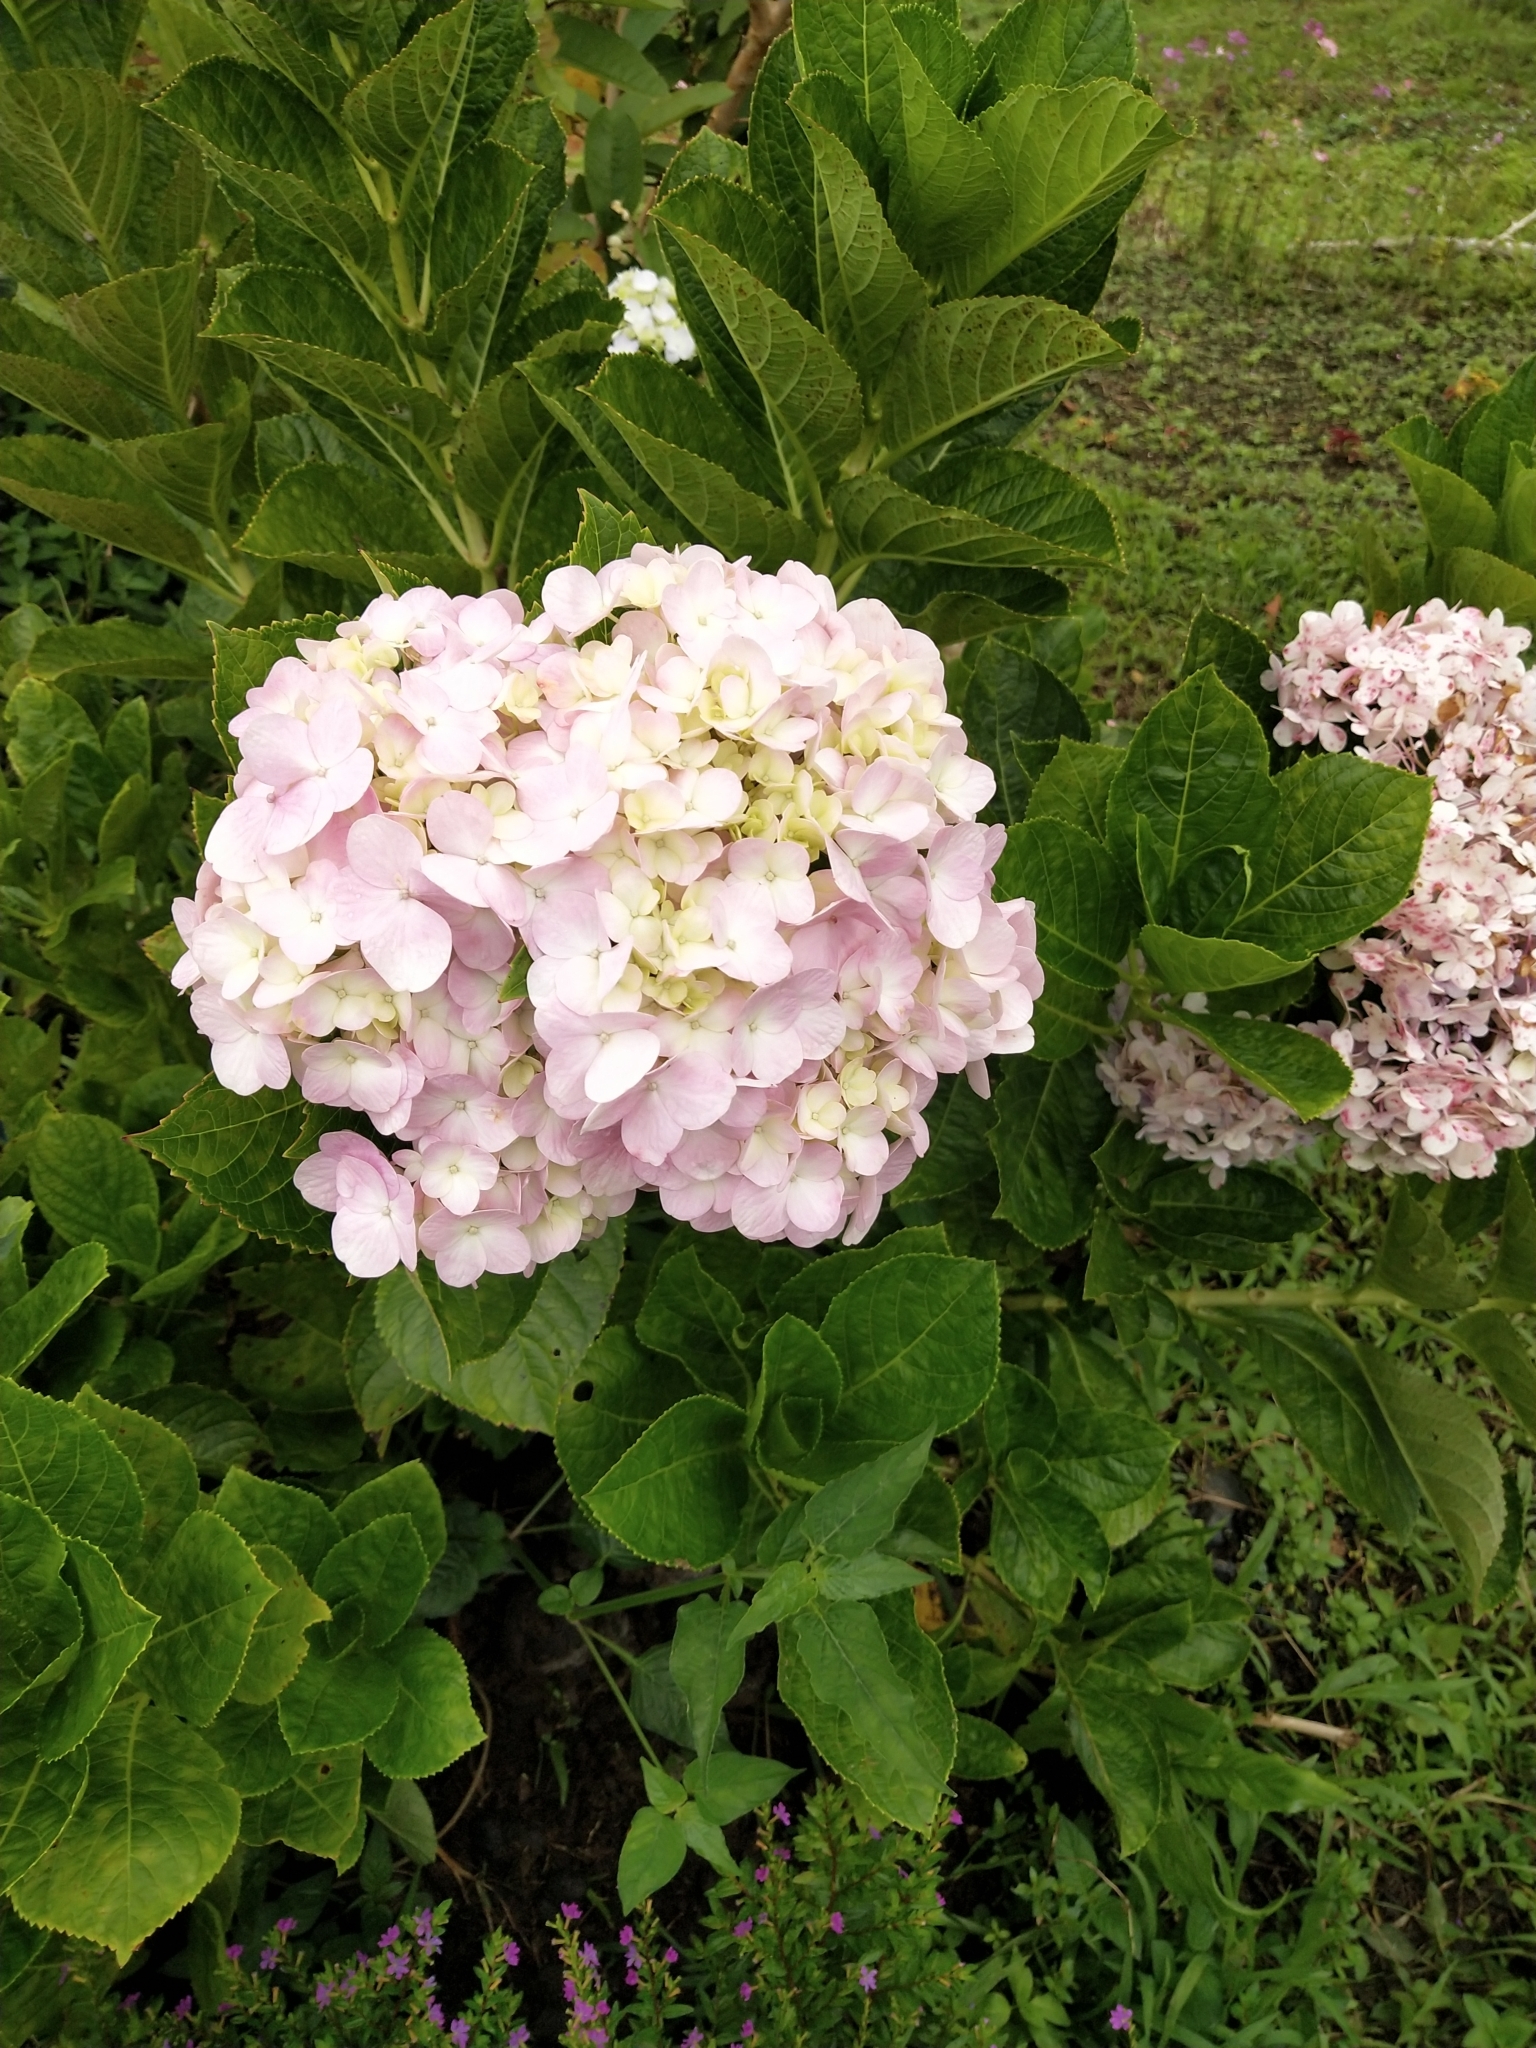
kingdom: Plantae
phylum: Tracheophyta
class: Magnoliopsida
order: Cornales
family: Hydrangeaceae
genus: Hydrangea
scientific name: Hydrangea macrophylla
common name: Hydrangea
